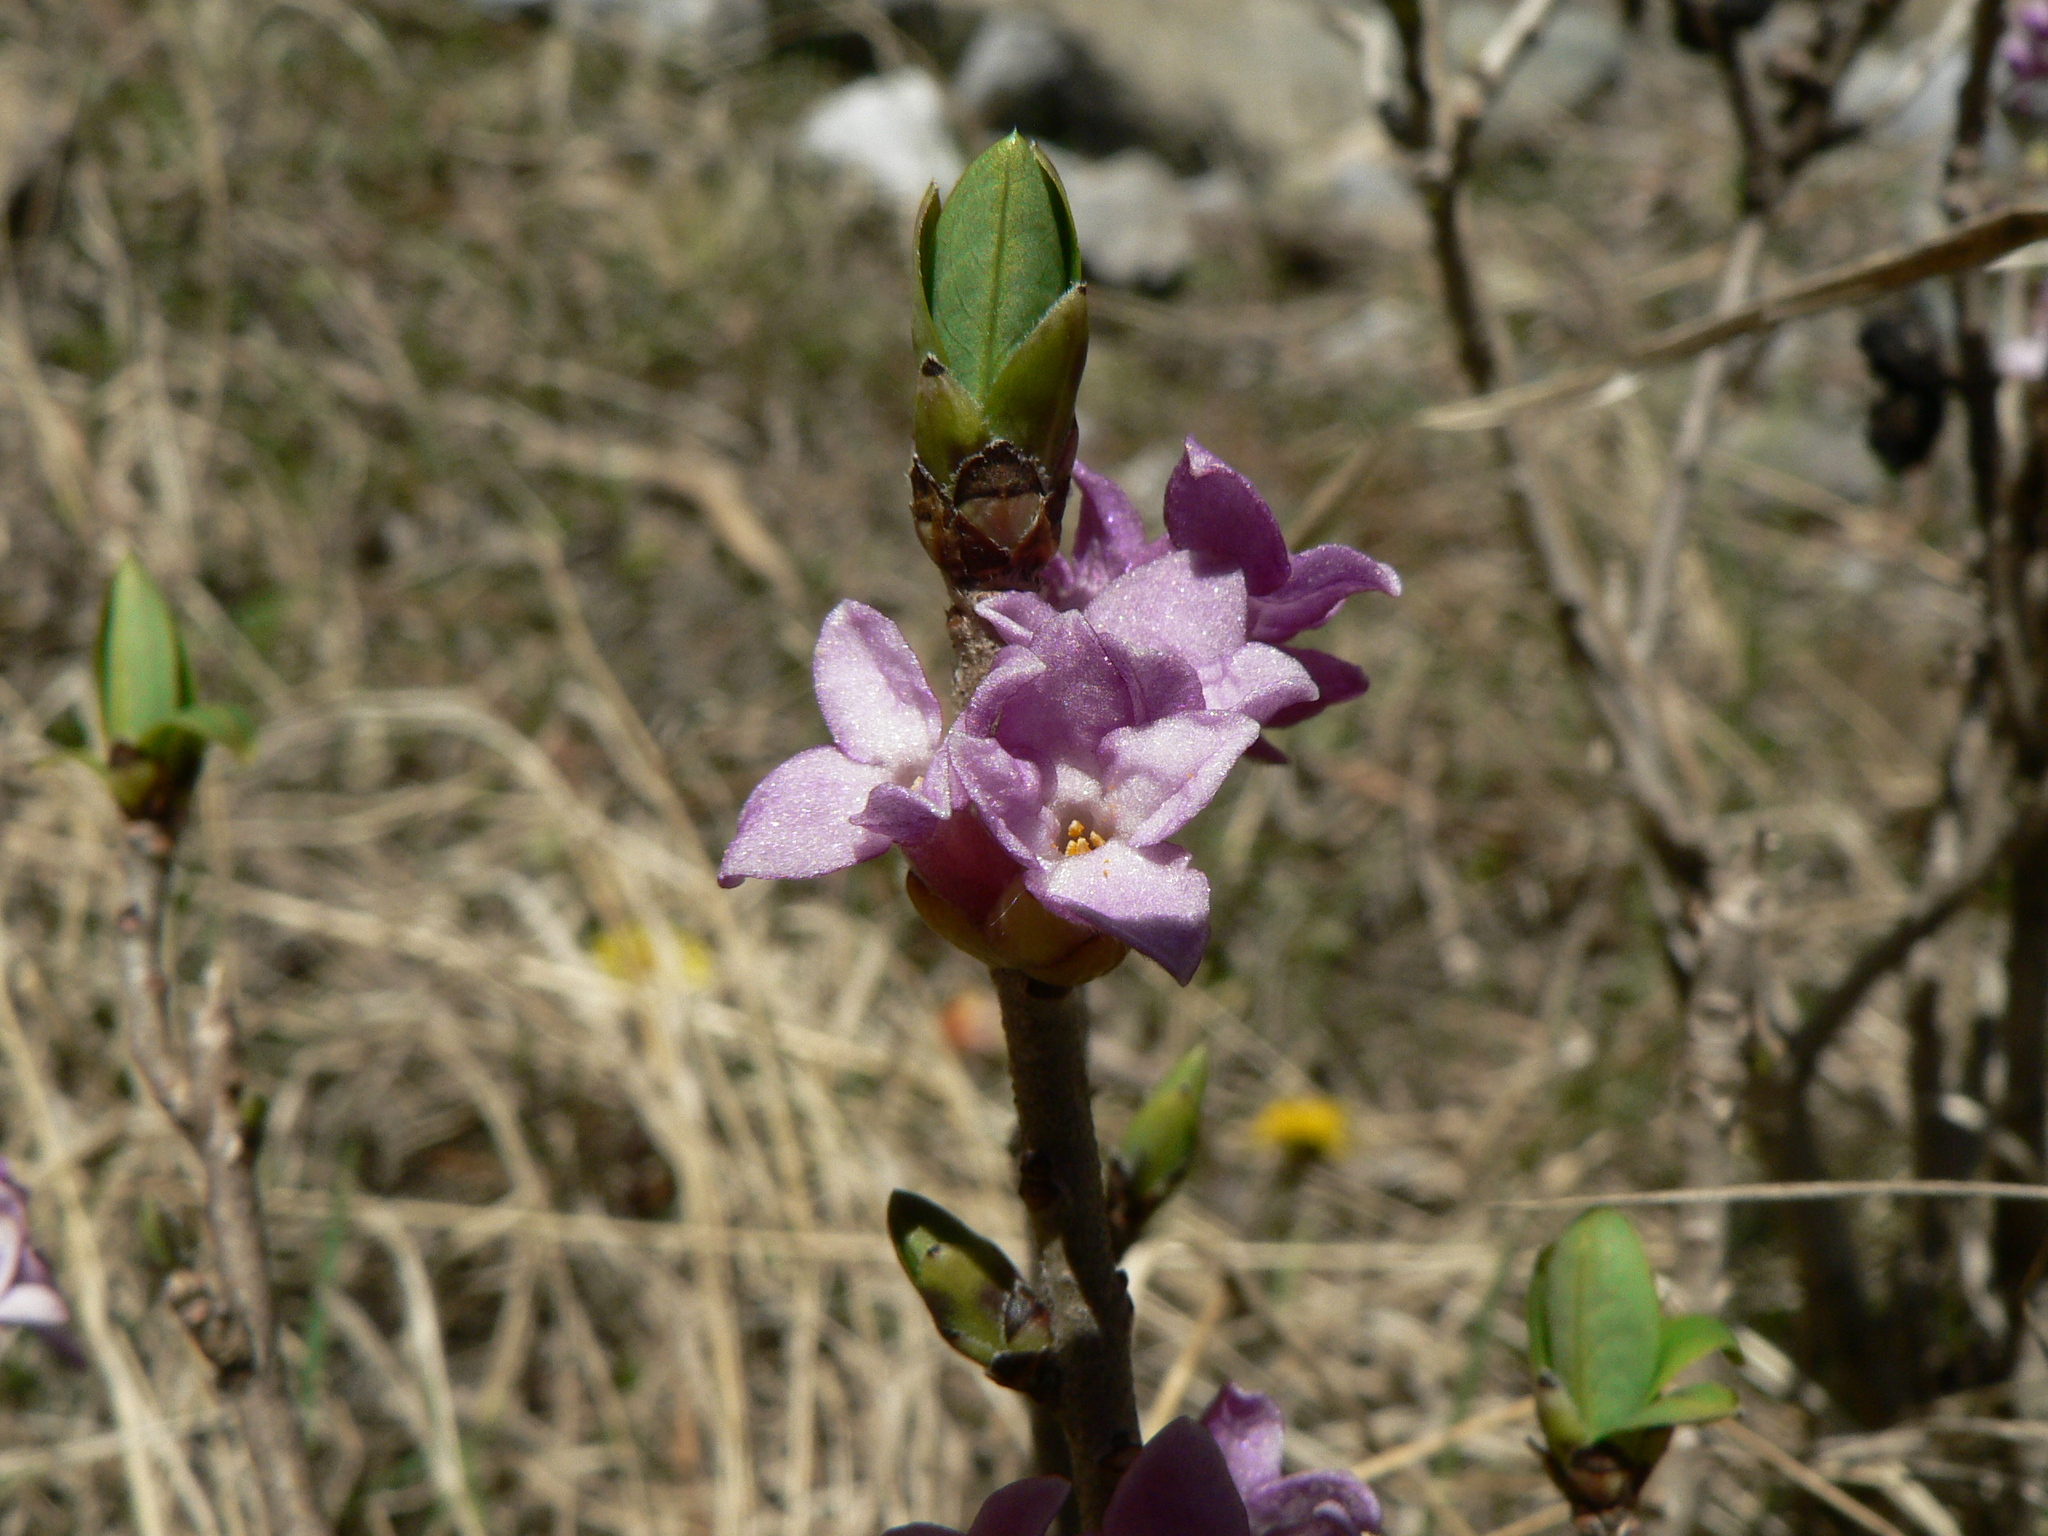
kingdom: Plantae
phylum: Tracheophyta
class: Magnoliopsida
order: Malvales
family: Thymelaeaceae
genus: Daphne
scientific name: Daphne mezereum
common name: Mezereon
